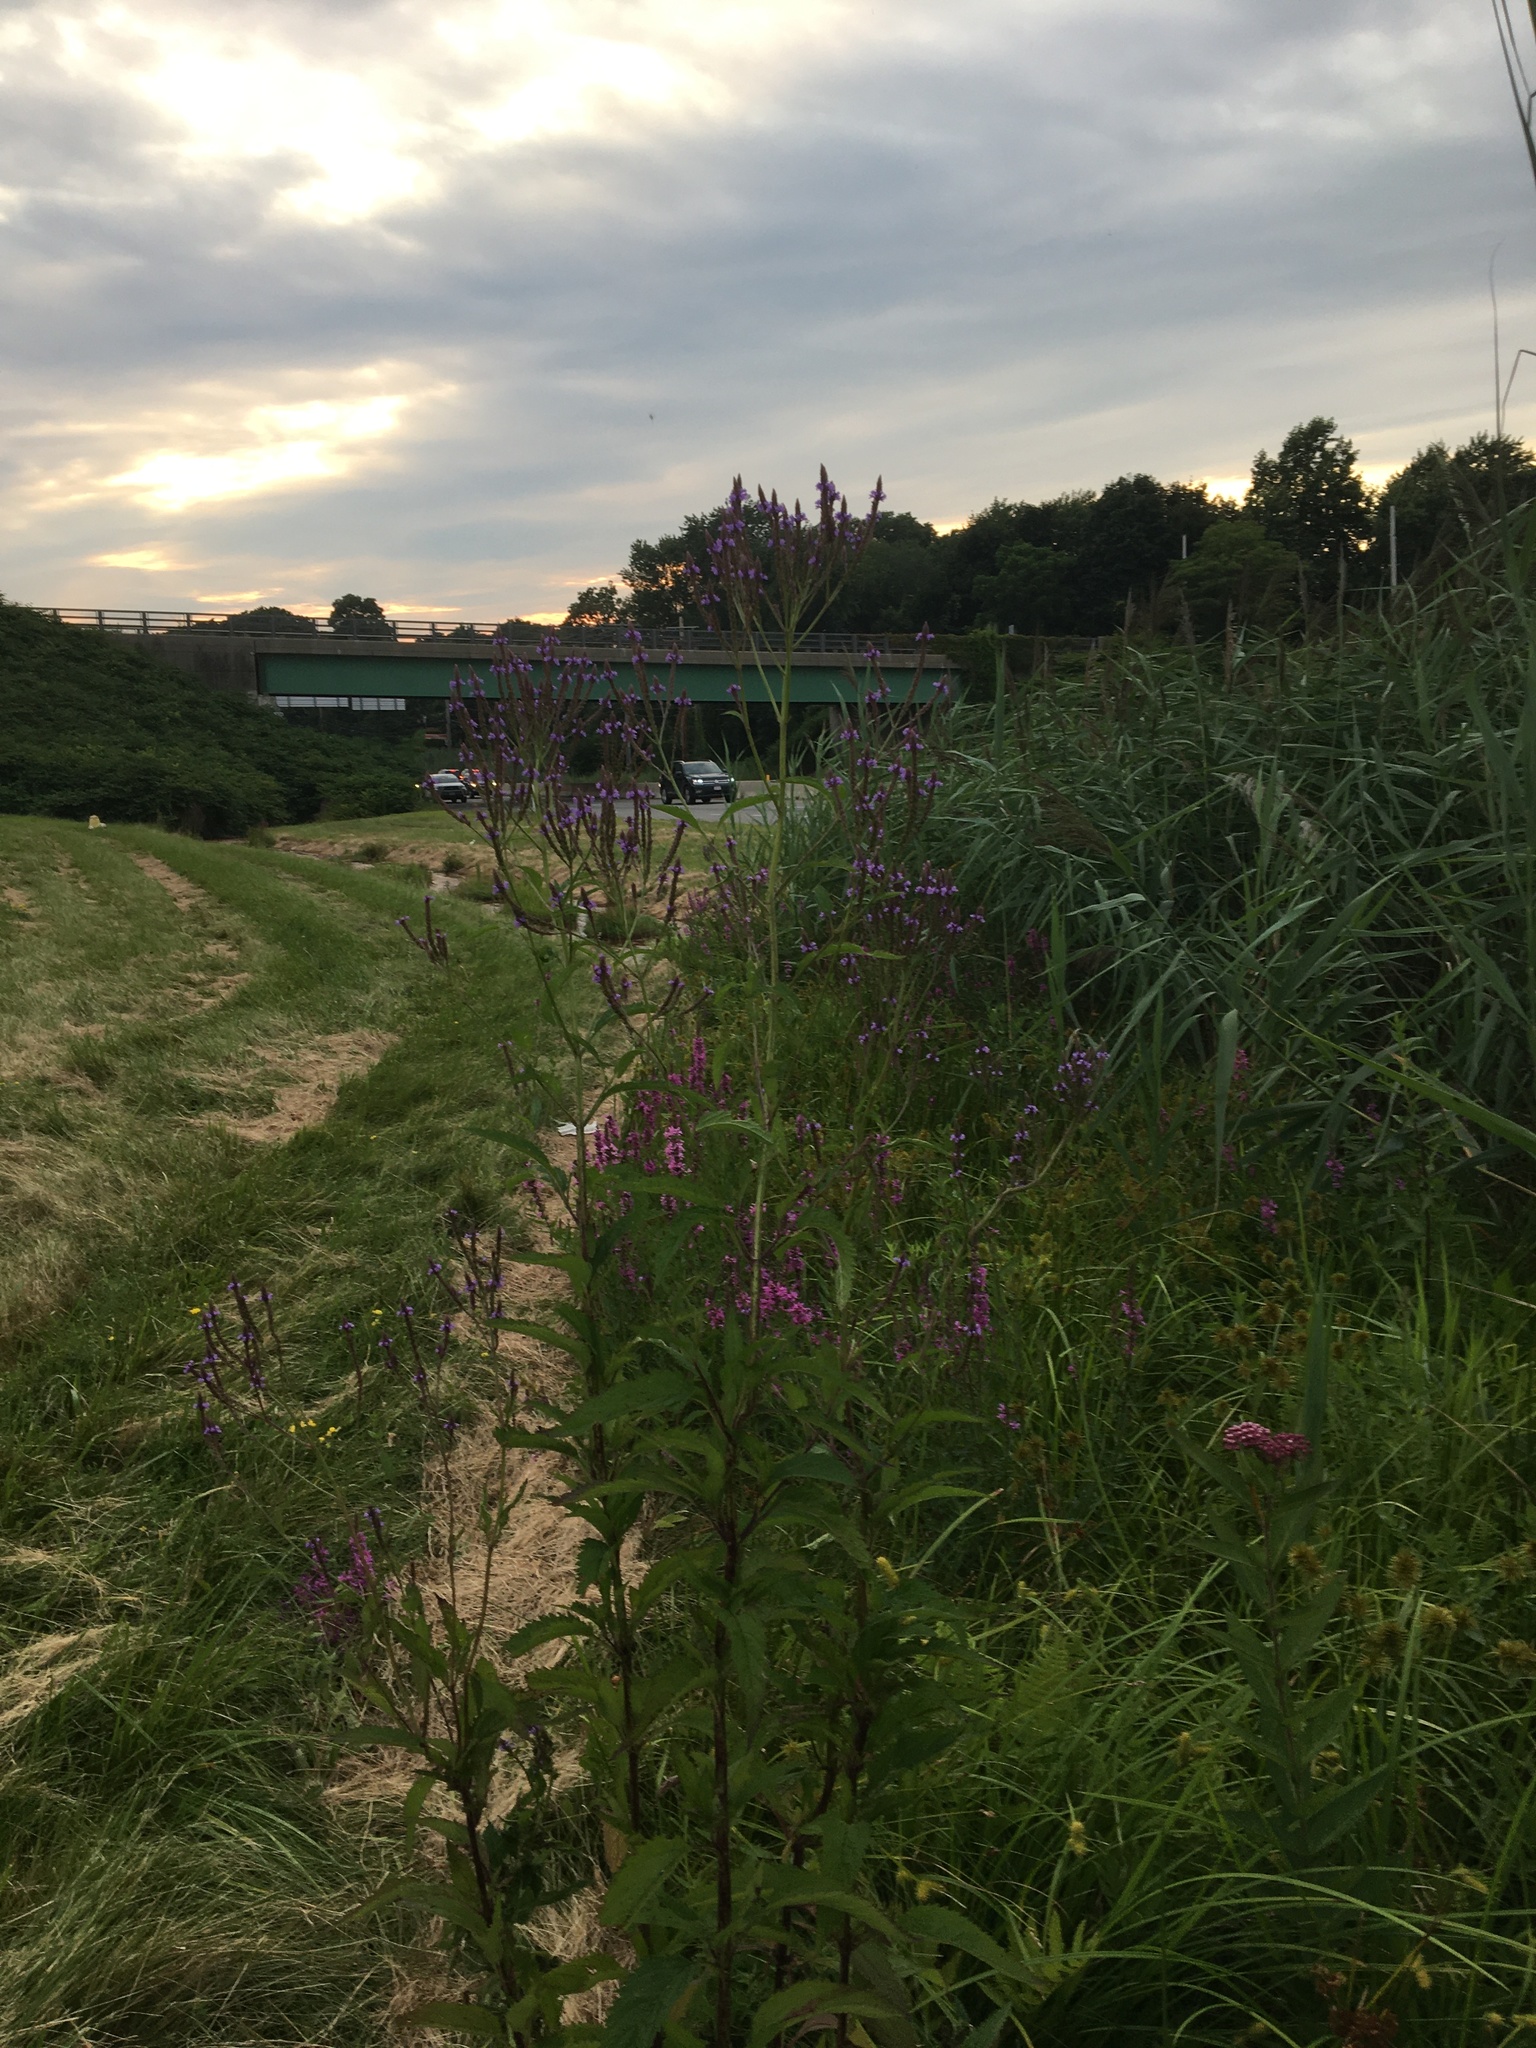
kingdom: Plantae
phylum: Tracheophyta
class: Magnoliopsida
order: Lamiales
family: Verbenaceae
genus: Verbena
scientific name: Verbena hastata
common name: American blue vervain
